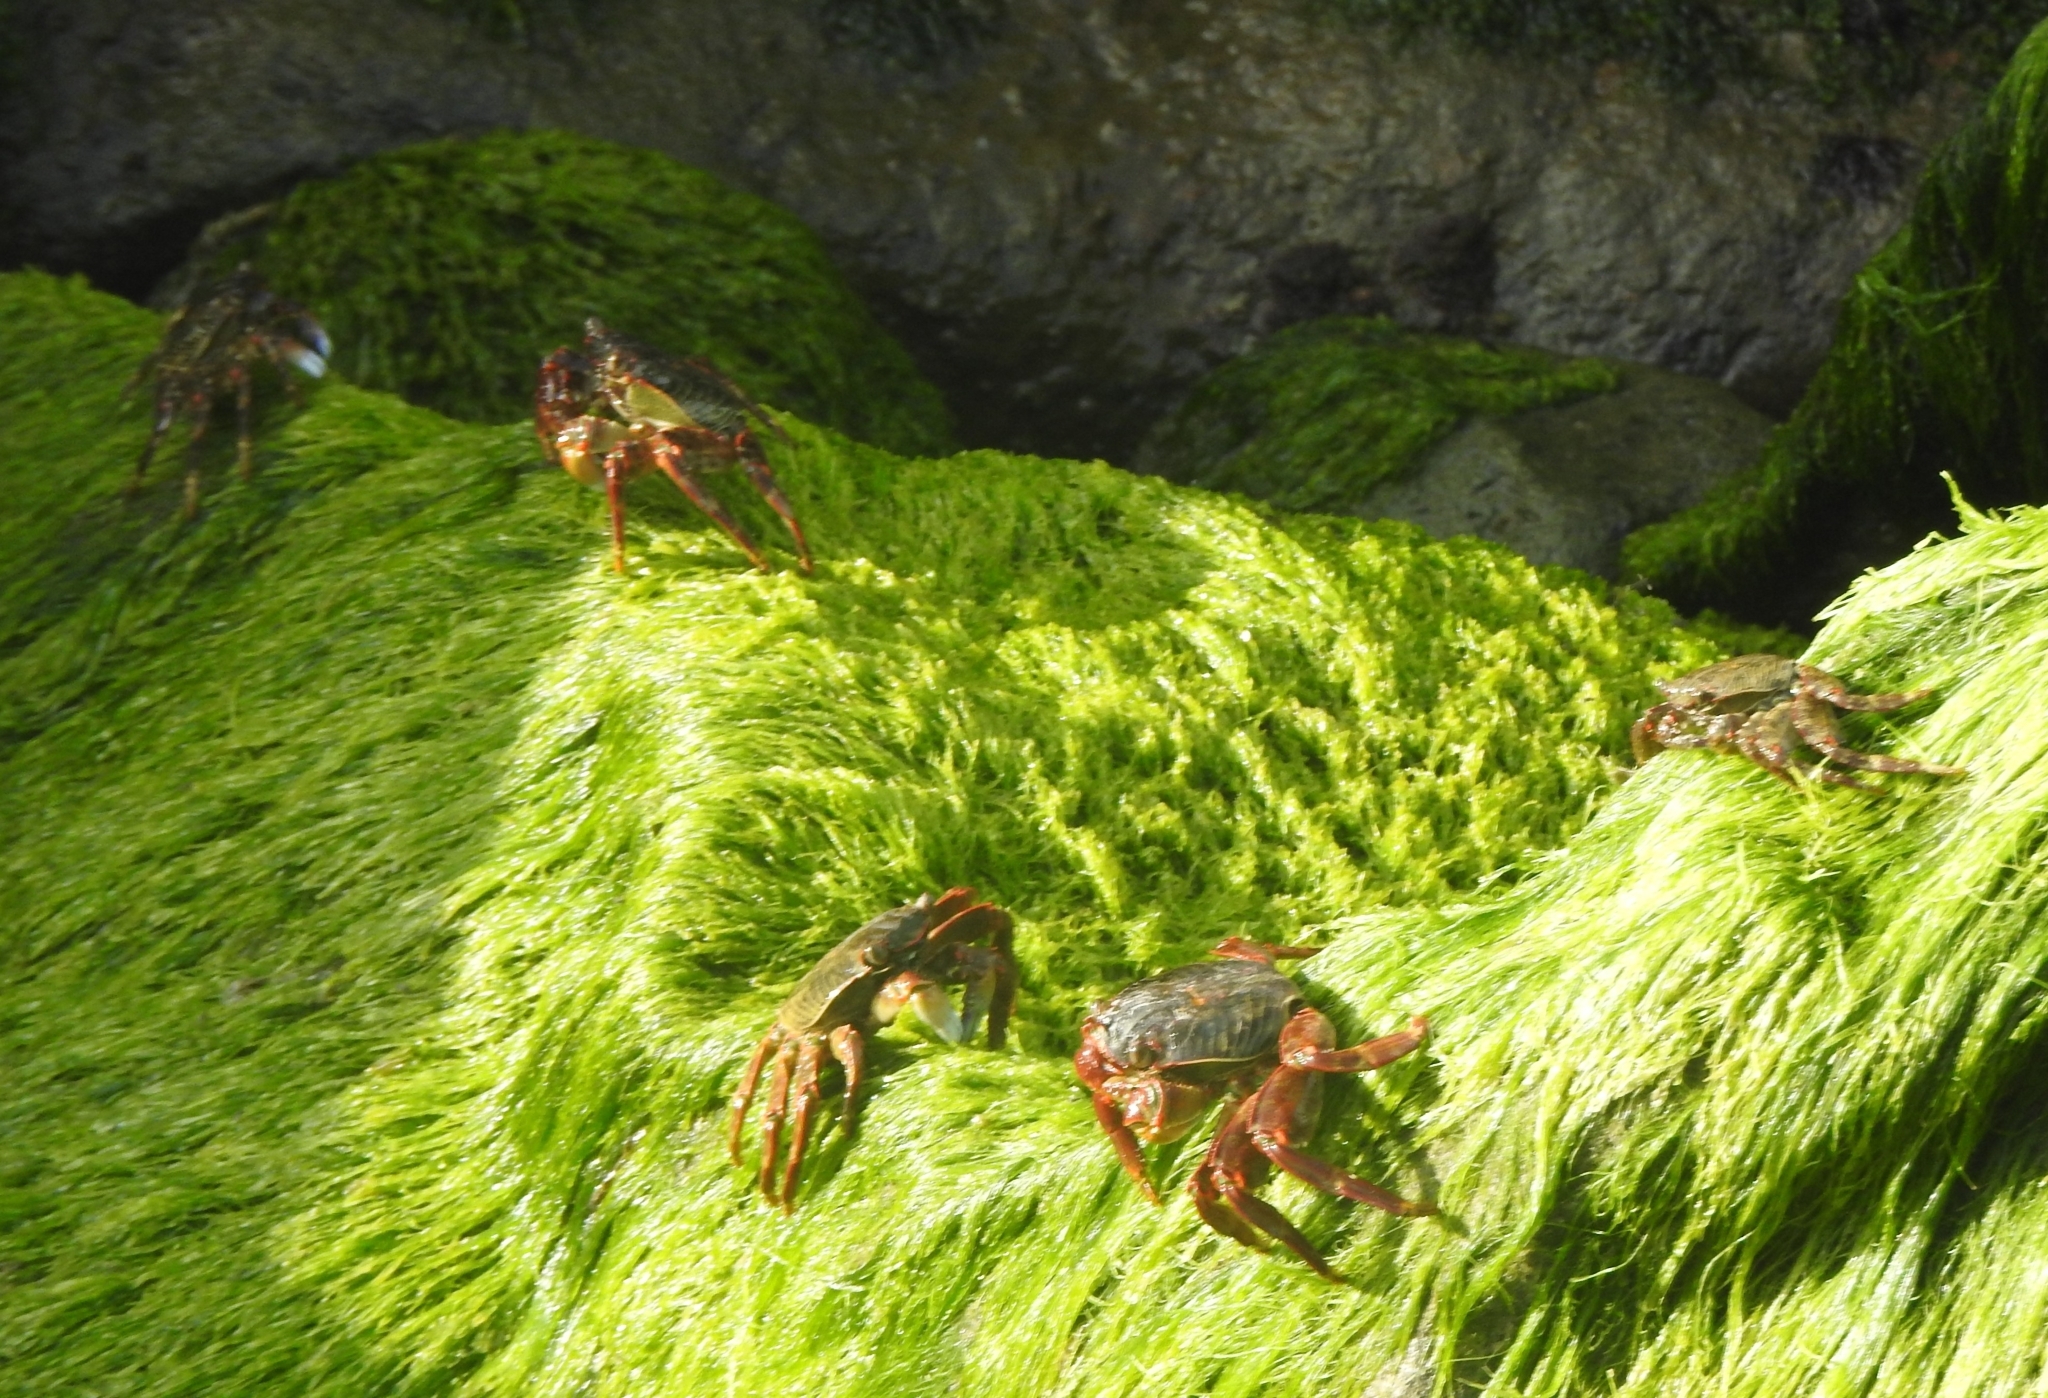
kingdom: Animalia
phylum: Arthropoda
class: Malacostraca
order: Decapoda
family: Grapsidae
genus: Grapsus
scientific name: Grapsus albolineatus
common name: Mottled lightfoot crab
